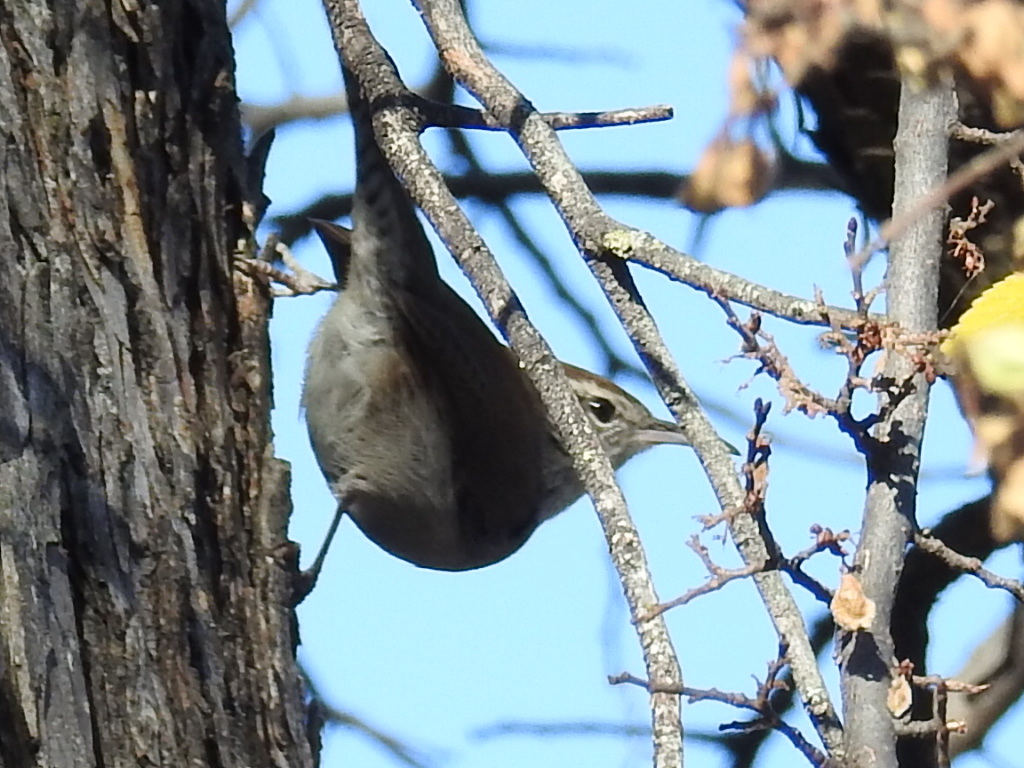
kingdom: Animalia
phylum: Chordata
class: Aves
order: Passeriformes
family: Troglodytidae
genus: Thryomanes
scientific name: Thryomanes bewickii
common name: Bewick's wren
